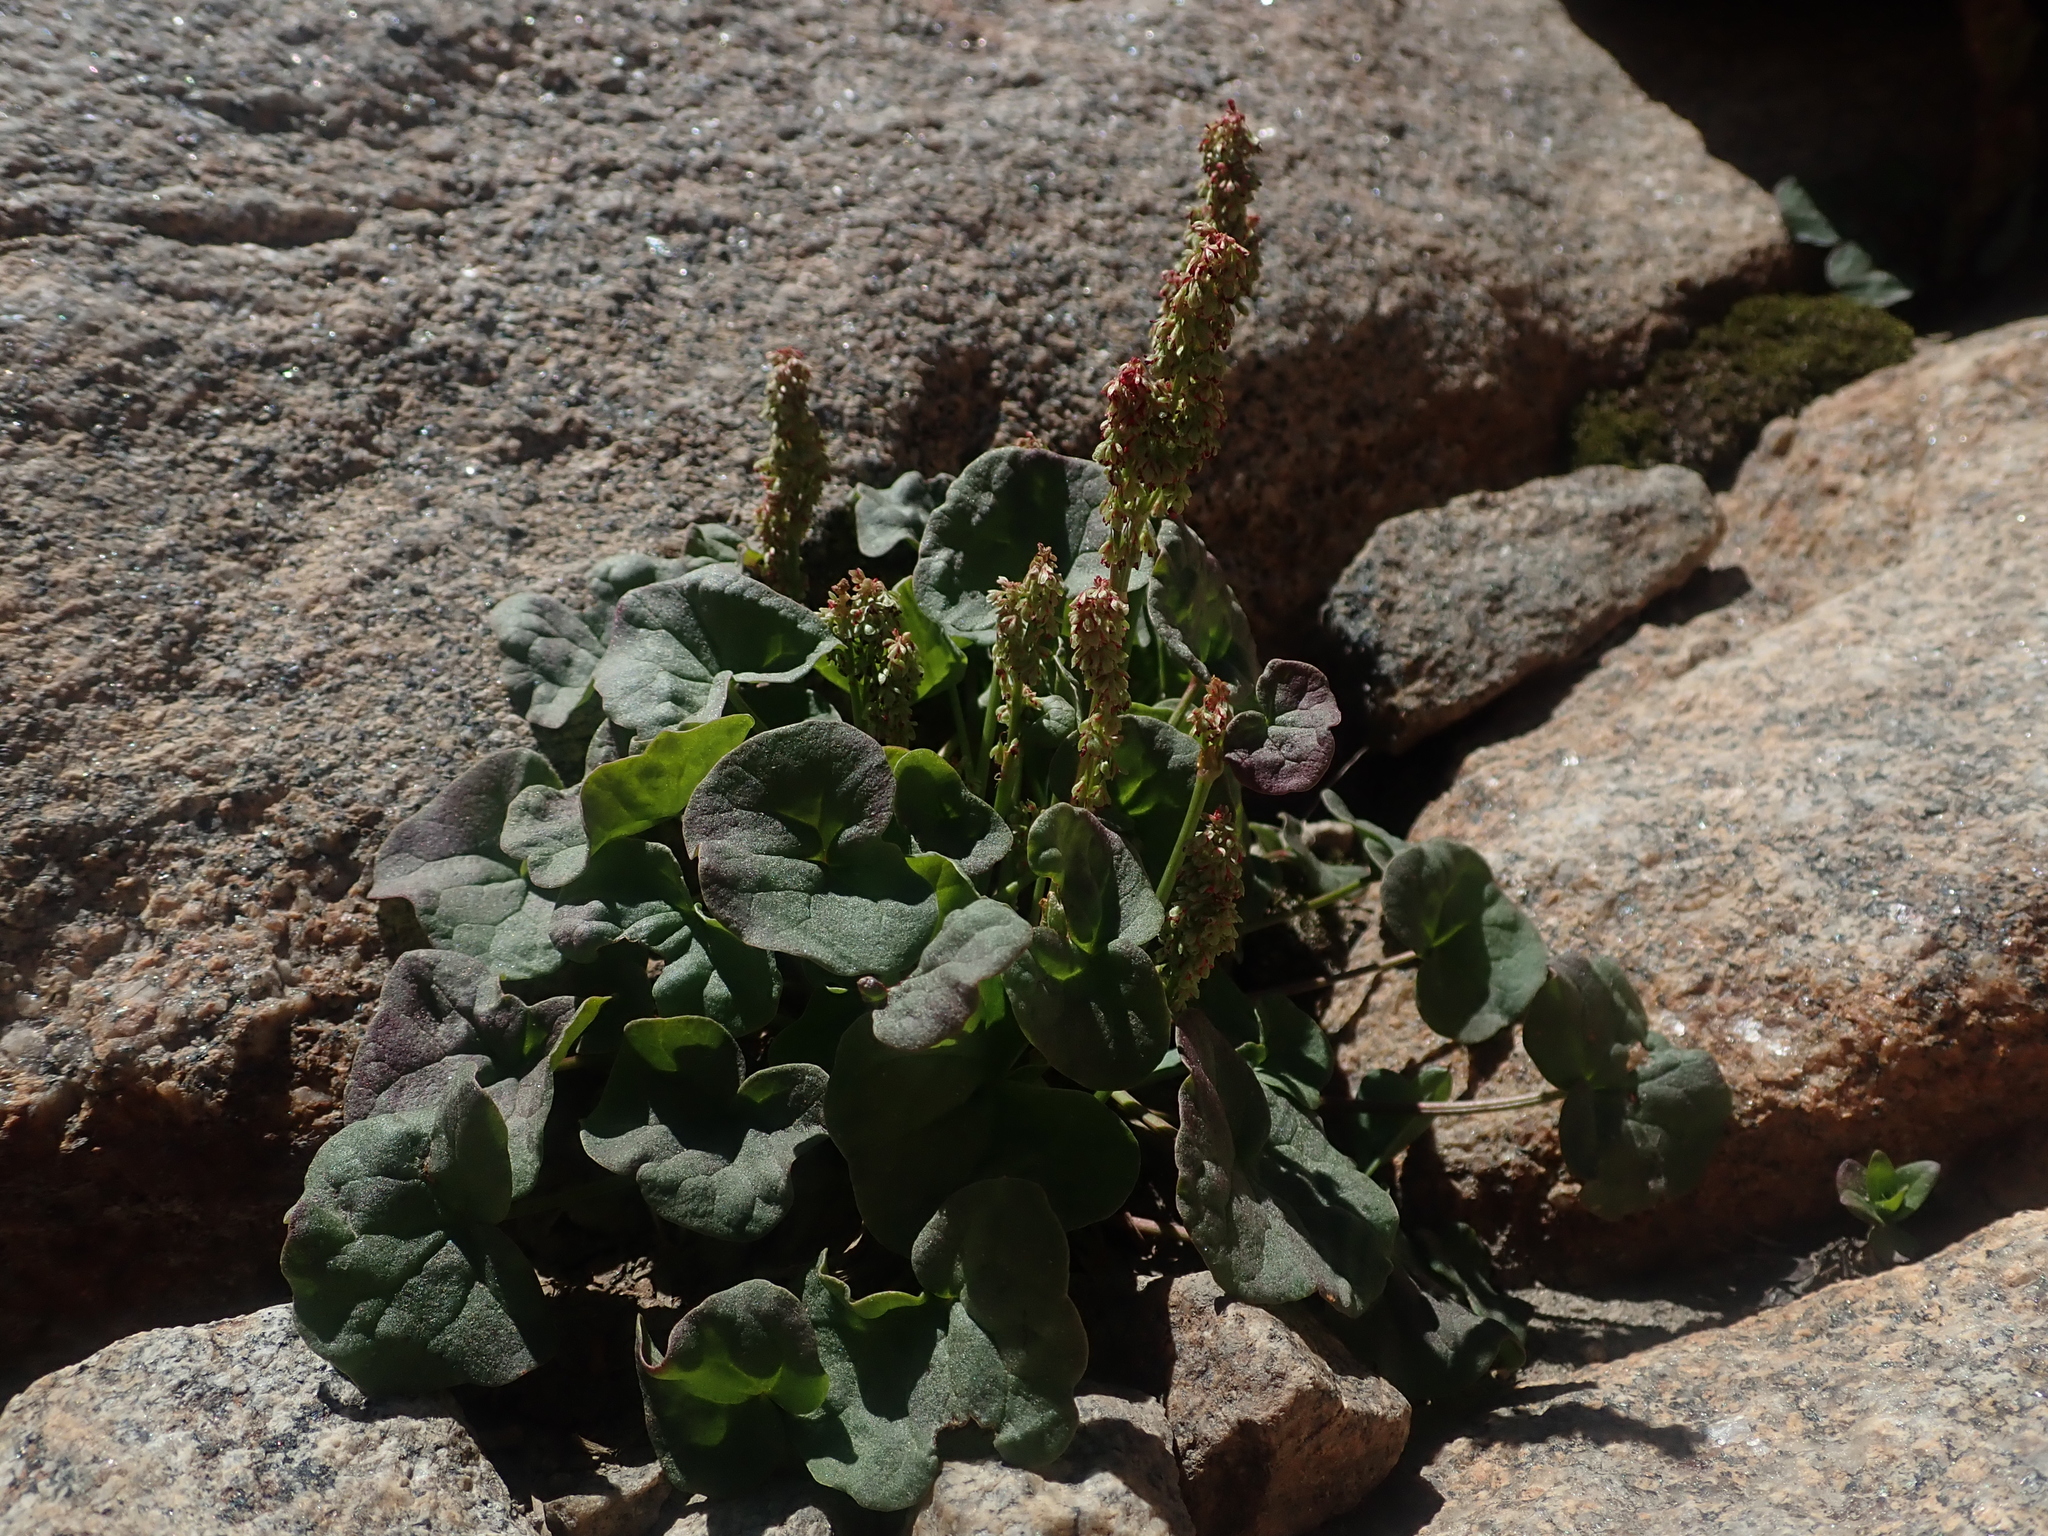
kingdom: Plantae
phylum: Tracheophyta
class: Magnoliopsida
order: Caryophyllales
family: Polygonaceae
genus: Oxyria
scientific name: Oxyria digyna
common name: Alpine mountain-sorrel
